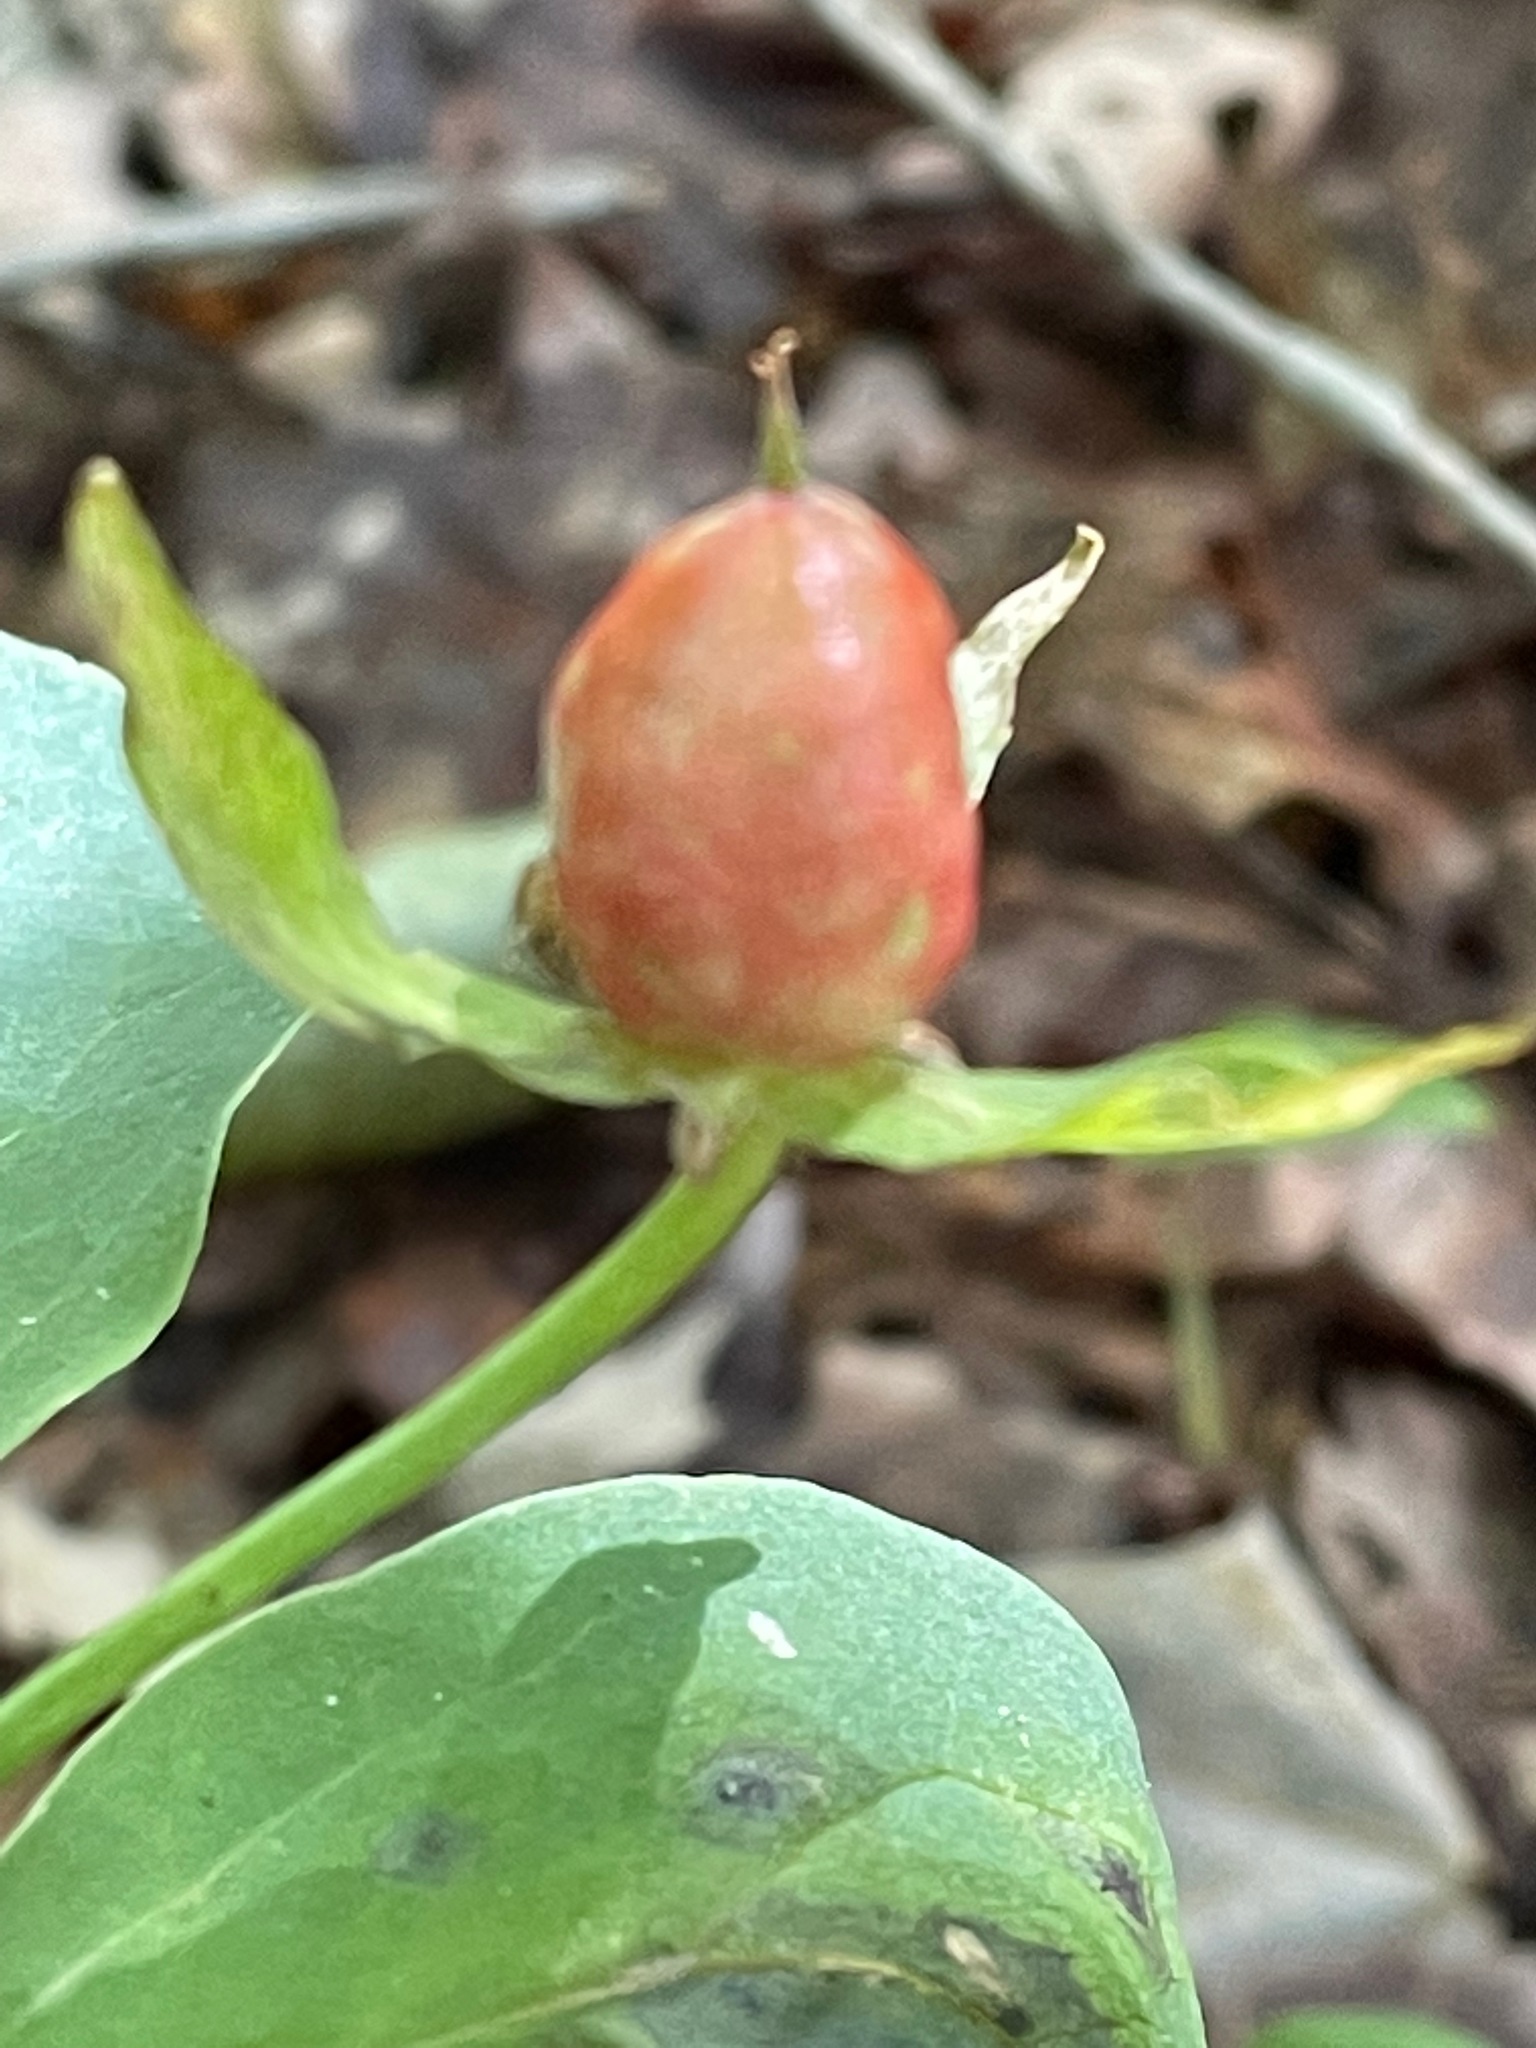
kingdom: Plantae
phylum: Tracheophyta
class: Liliopsida
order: Liliales
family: Melanthiaceae
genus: Trillium
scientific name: Trillium undulatum
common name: Paint trillium
